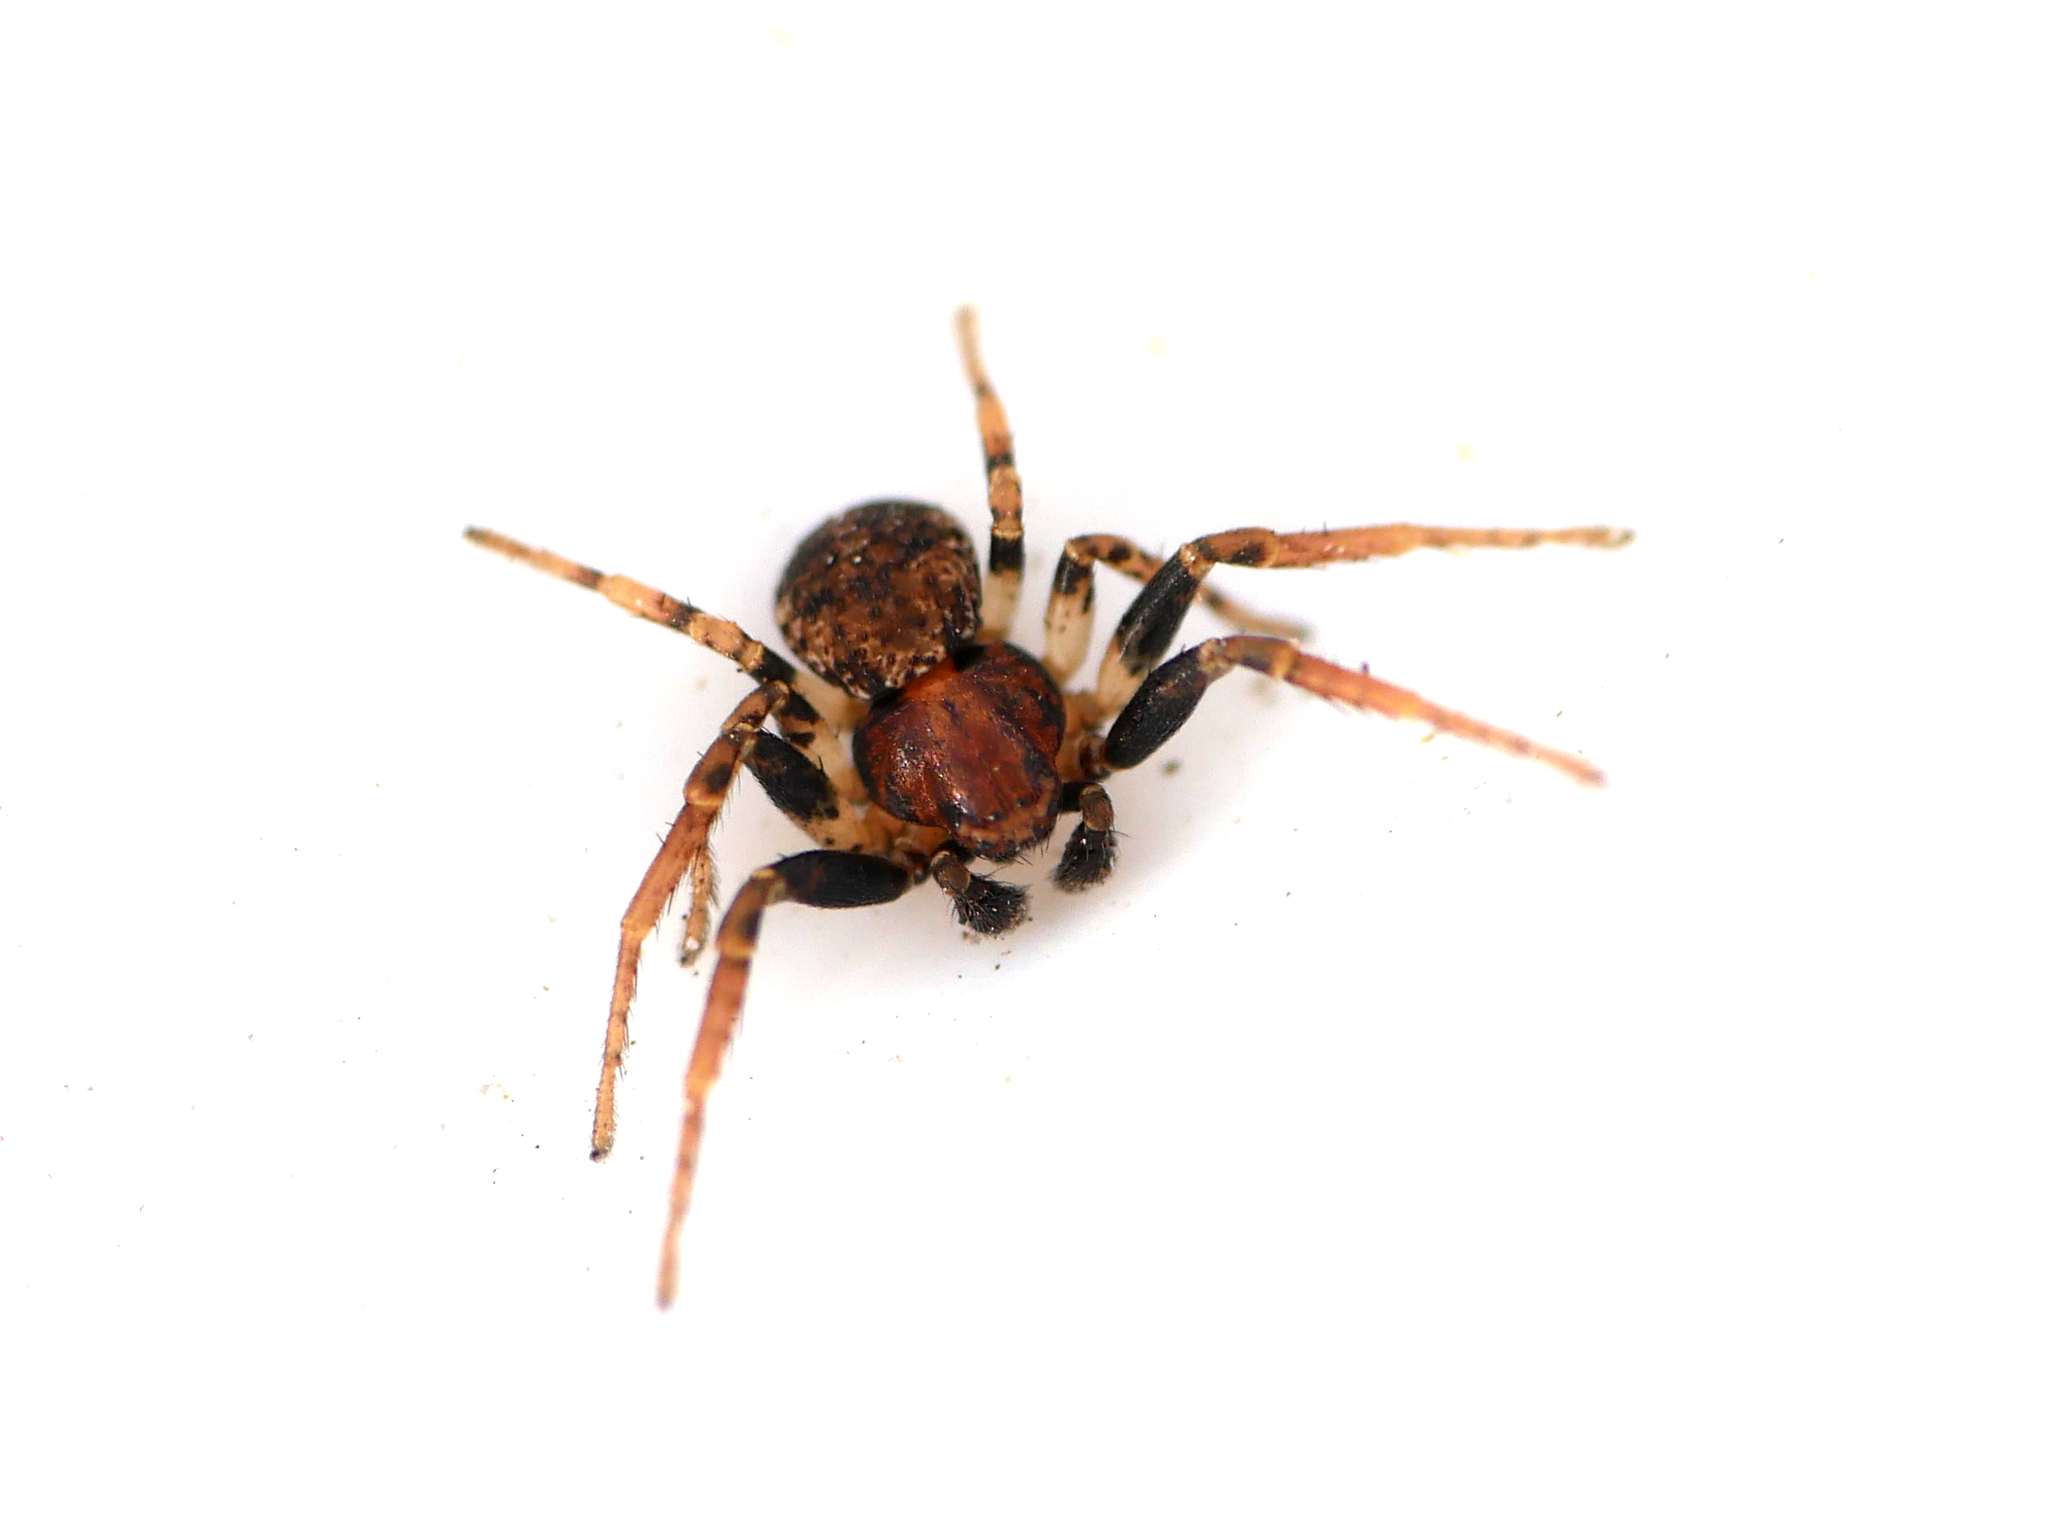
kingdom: Animalia
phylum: Arthropoda
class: Arachnida
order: Araneae
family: Thomisidae
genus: Ozyptila
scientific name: Ozyptila praticola
